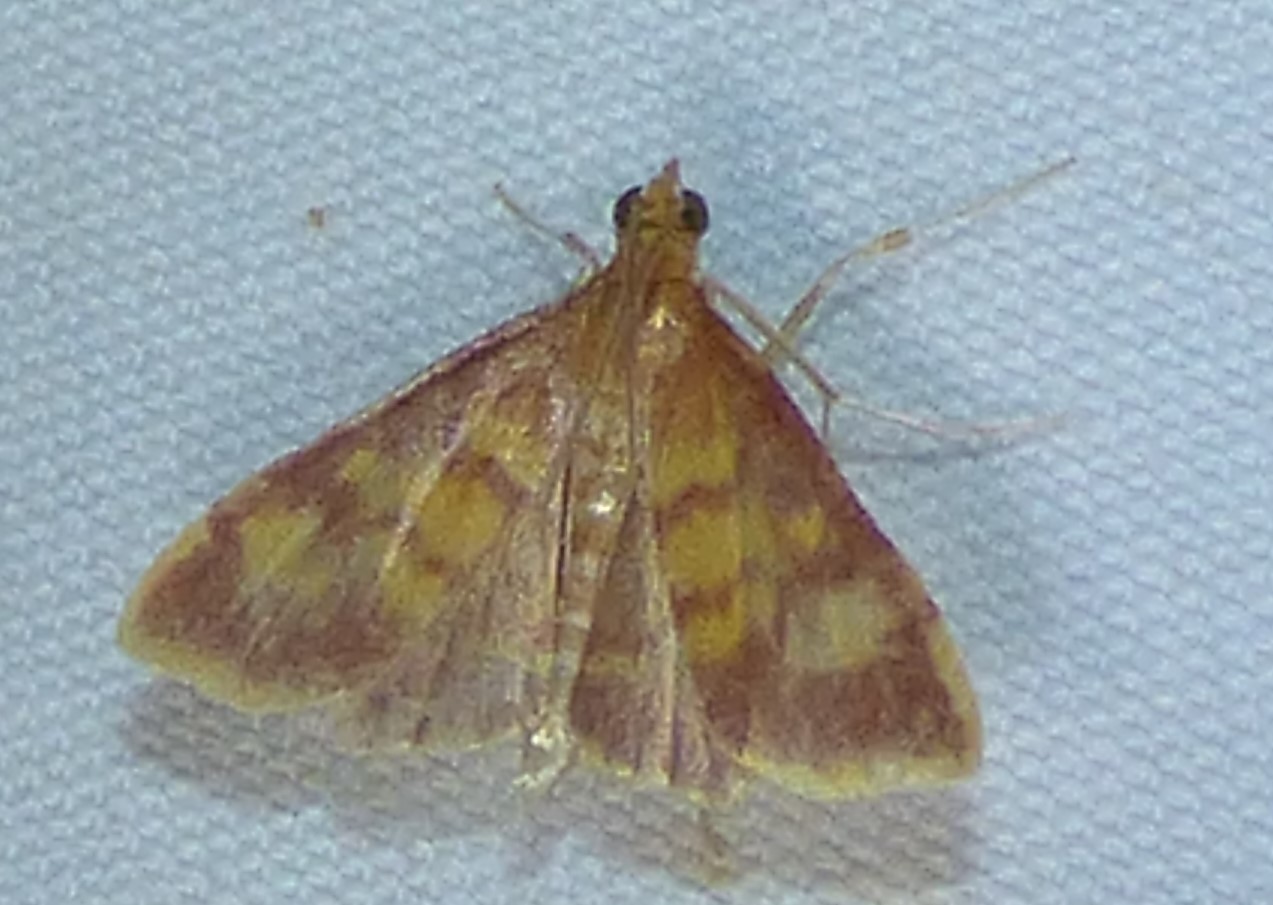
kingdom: Animalia
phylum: Arthropoda
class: Insecta
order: Lepidoptera
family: Crambidae
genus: Pyrausta
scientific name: Pyrausta acrionalis
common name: Mint-loving pyrausta moth
